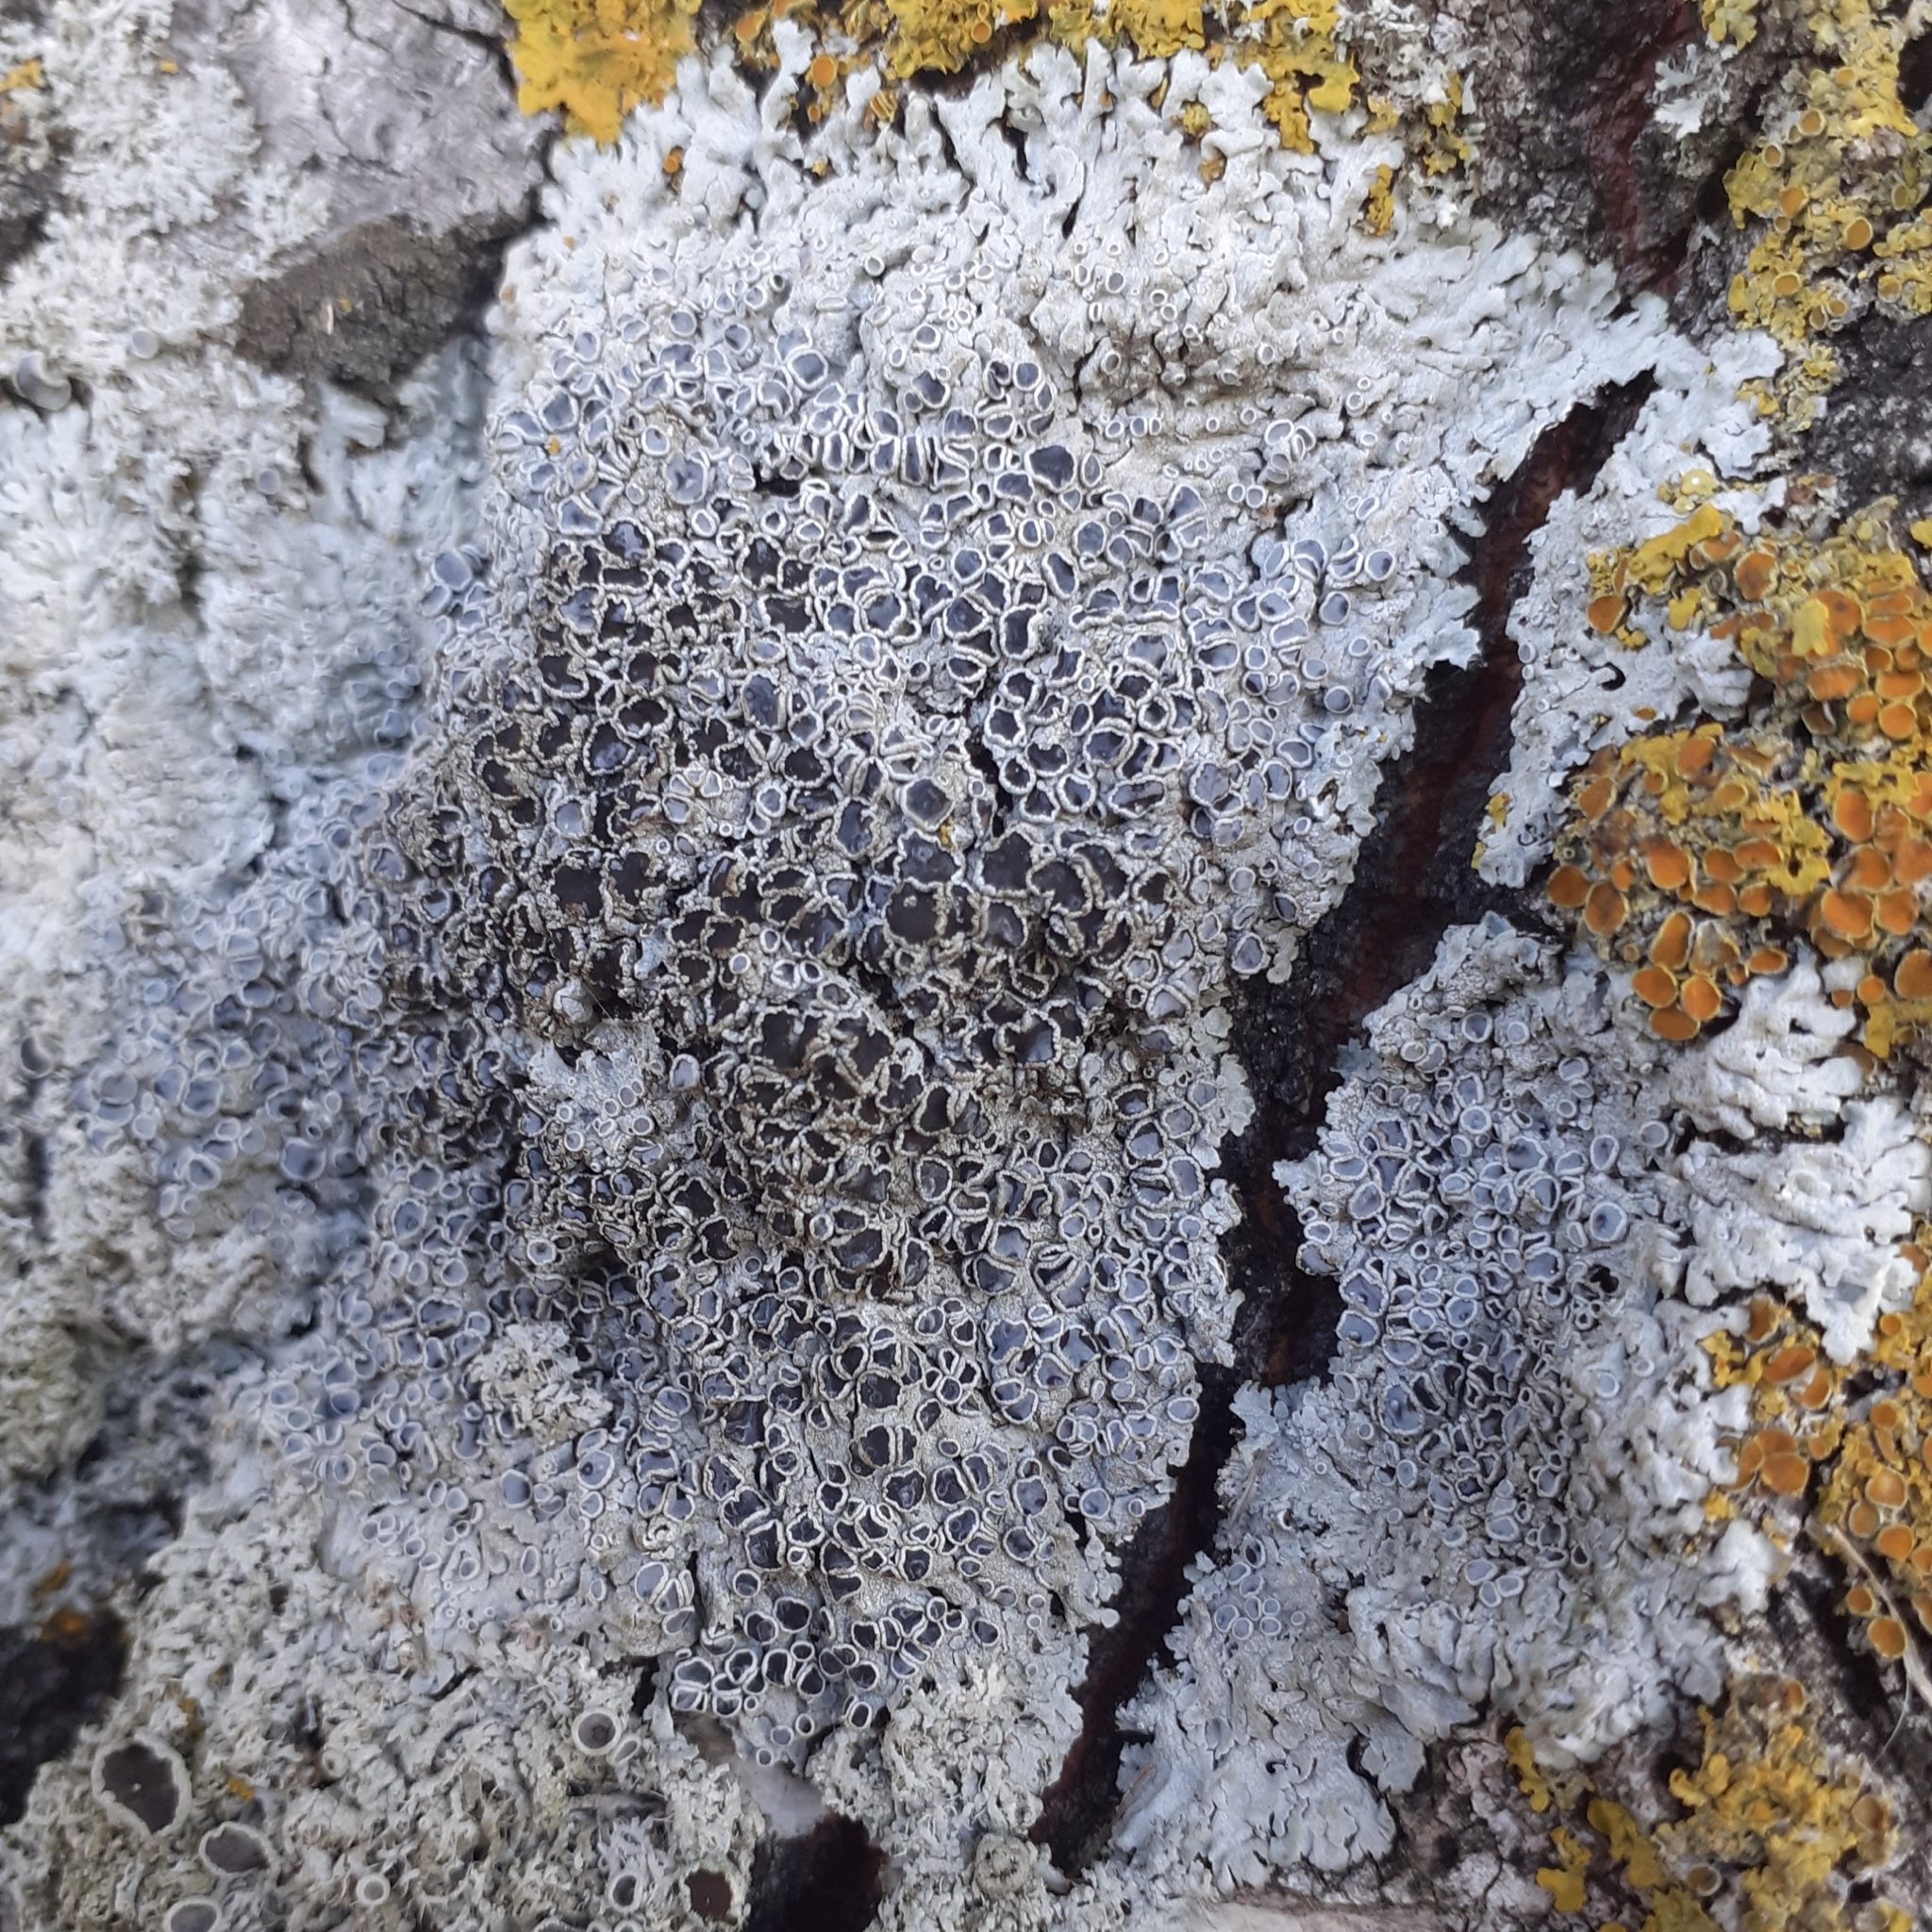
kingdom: Fungi
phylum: Ascomycota
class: Lecanoromycetes
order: Caliciales
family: Physciaceae
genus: Physcia
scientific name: Physcia aipolia
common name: Hoary rosette lichen
